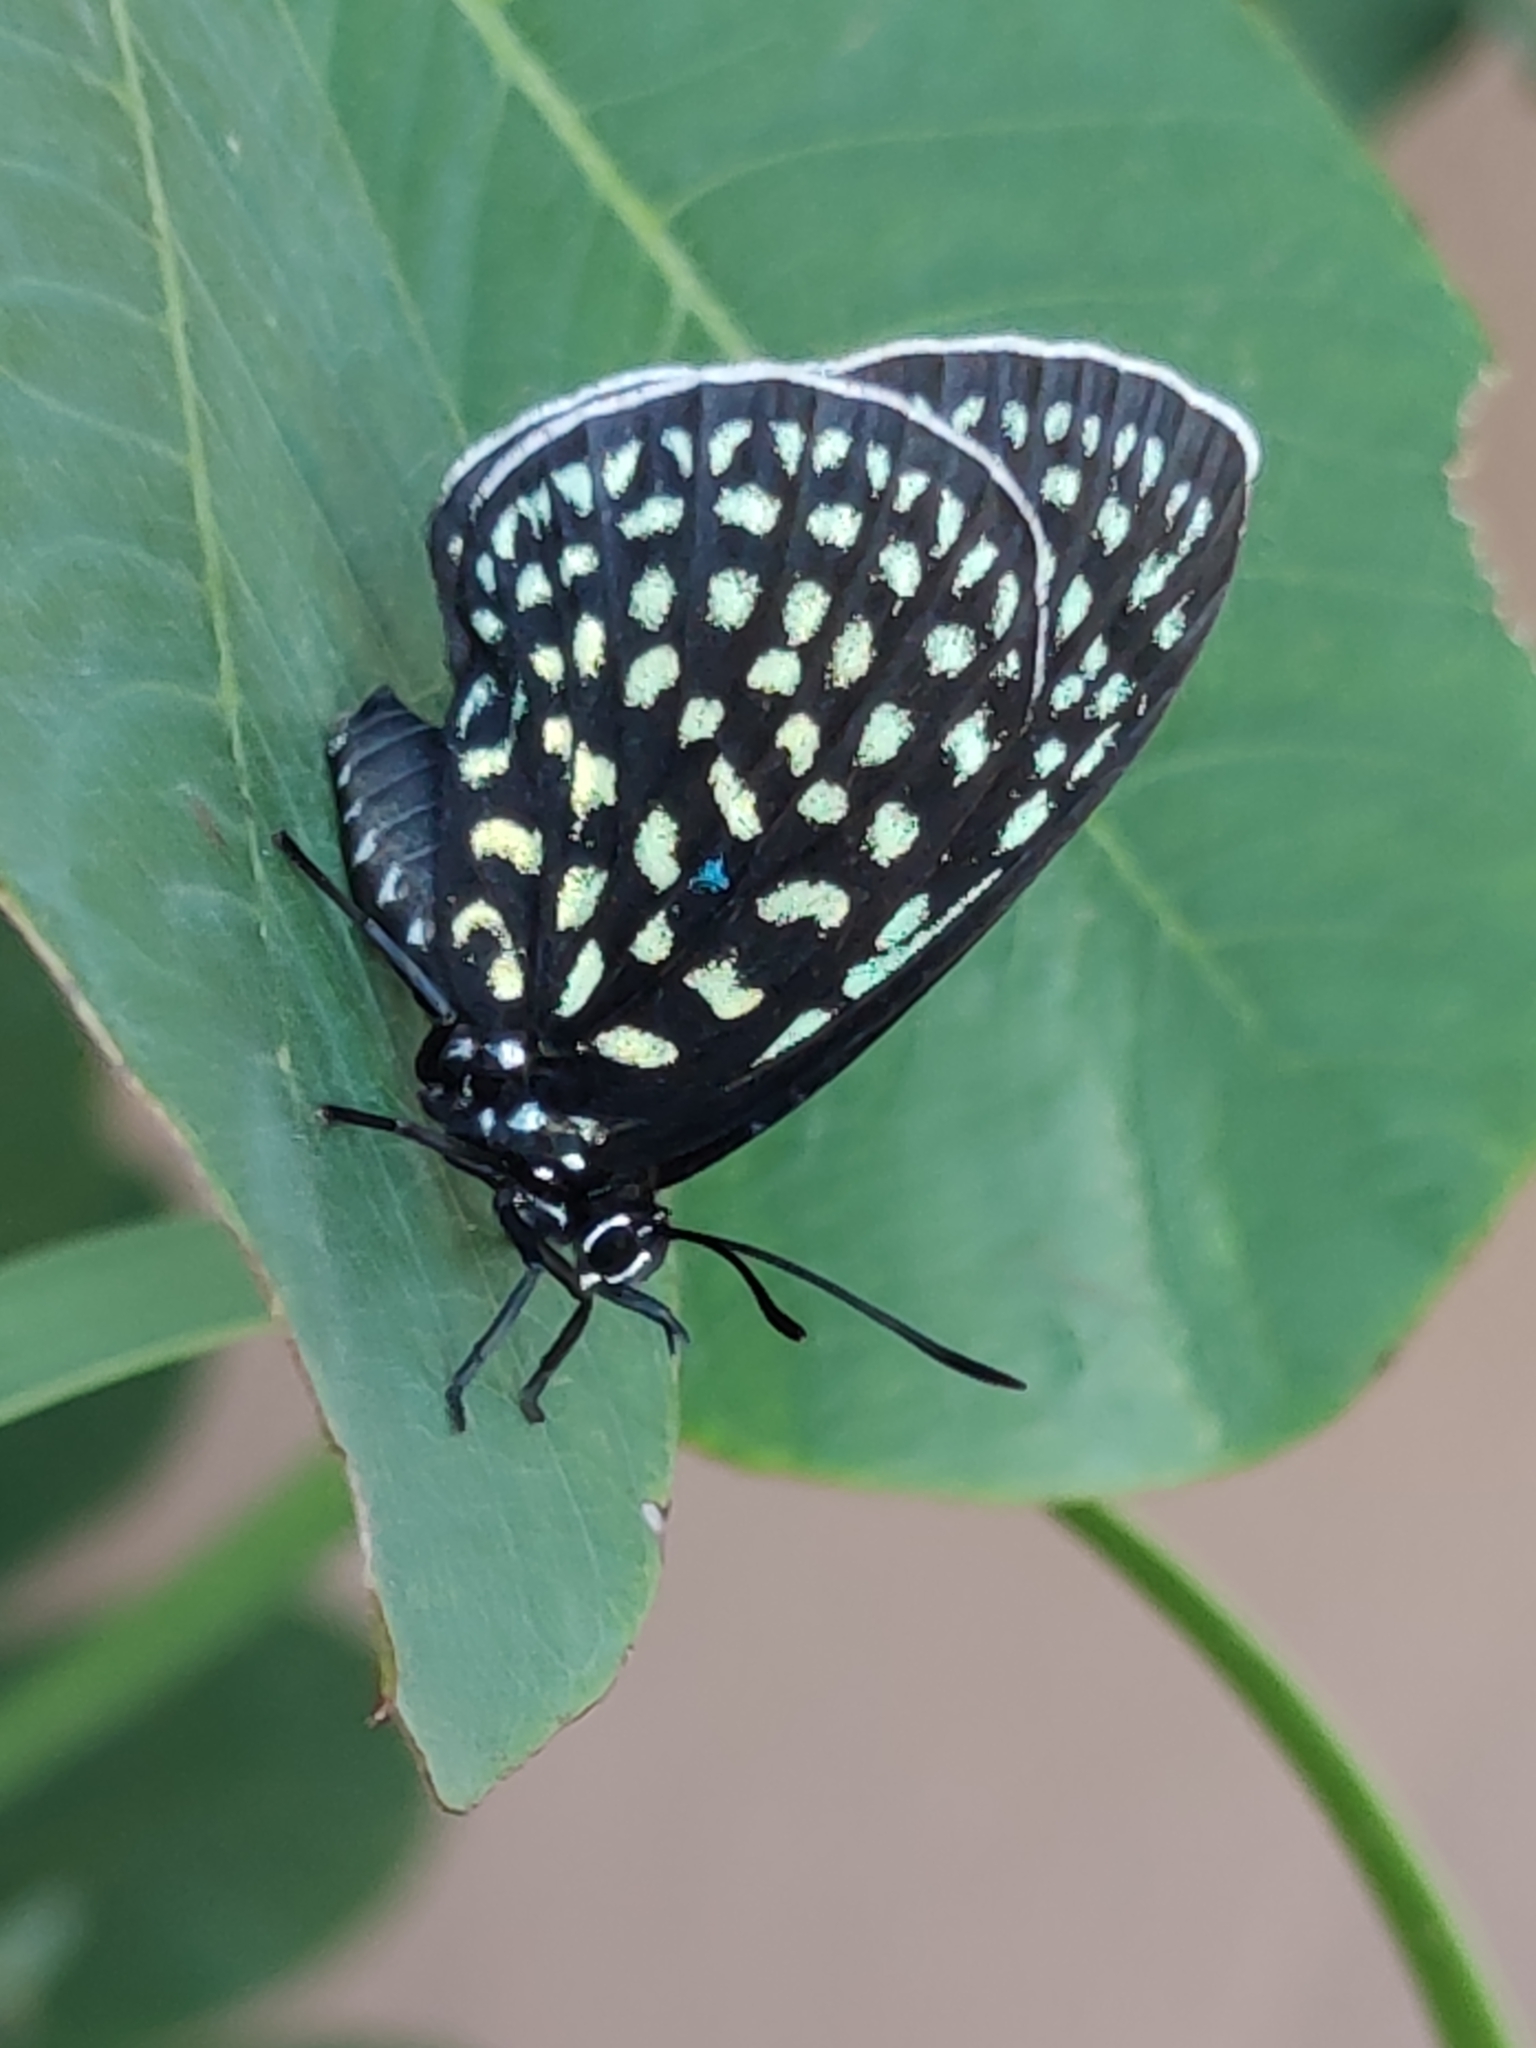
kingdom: Animalia
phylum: Arthropoda
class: Insecta
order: Lepidoptera
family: Lycaenidae
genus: Eumaeus
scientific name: Eumaeus childrenae
